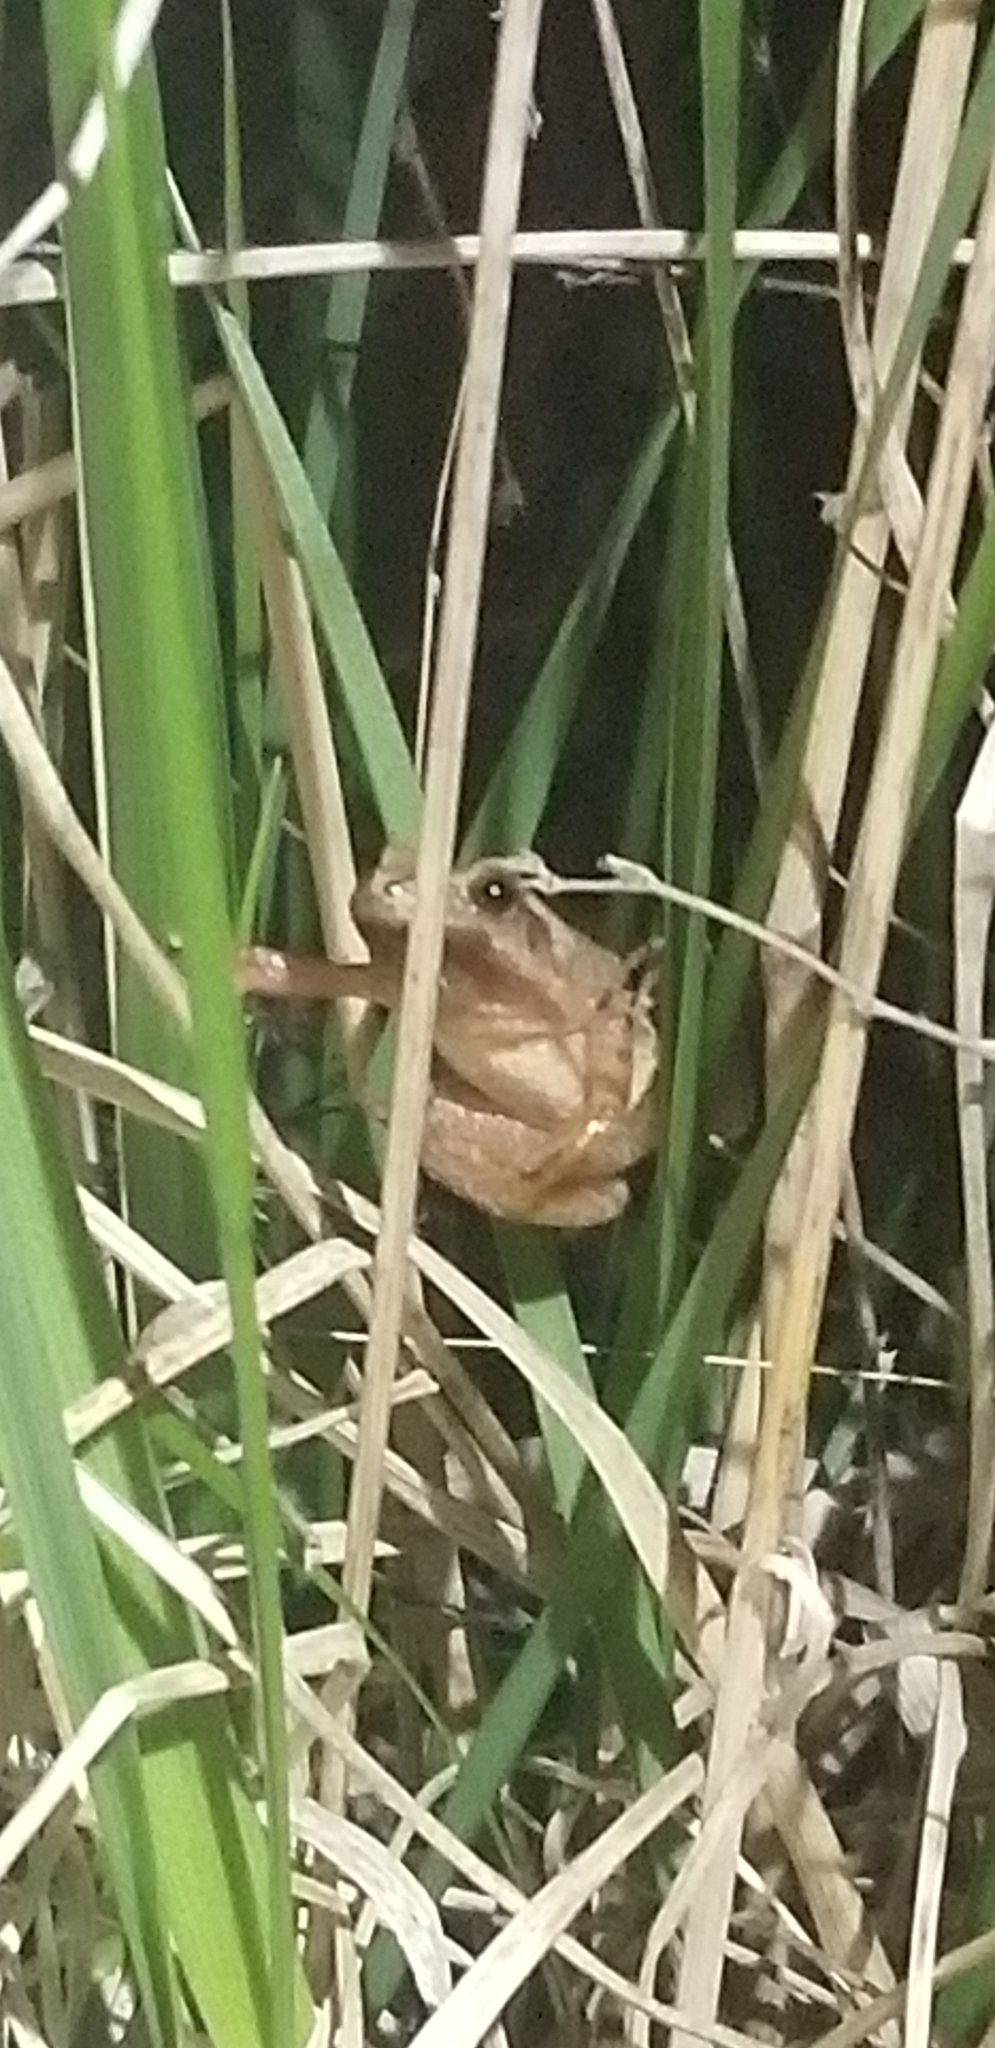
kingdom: Animalia
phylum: Chordata
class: Amphibia
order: Anura
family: Hylidae
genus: Pseudacris
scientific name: Pseudacris crucifer
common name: Spring peeper
